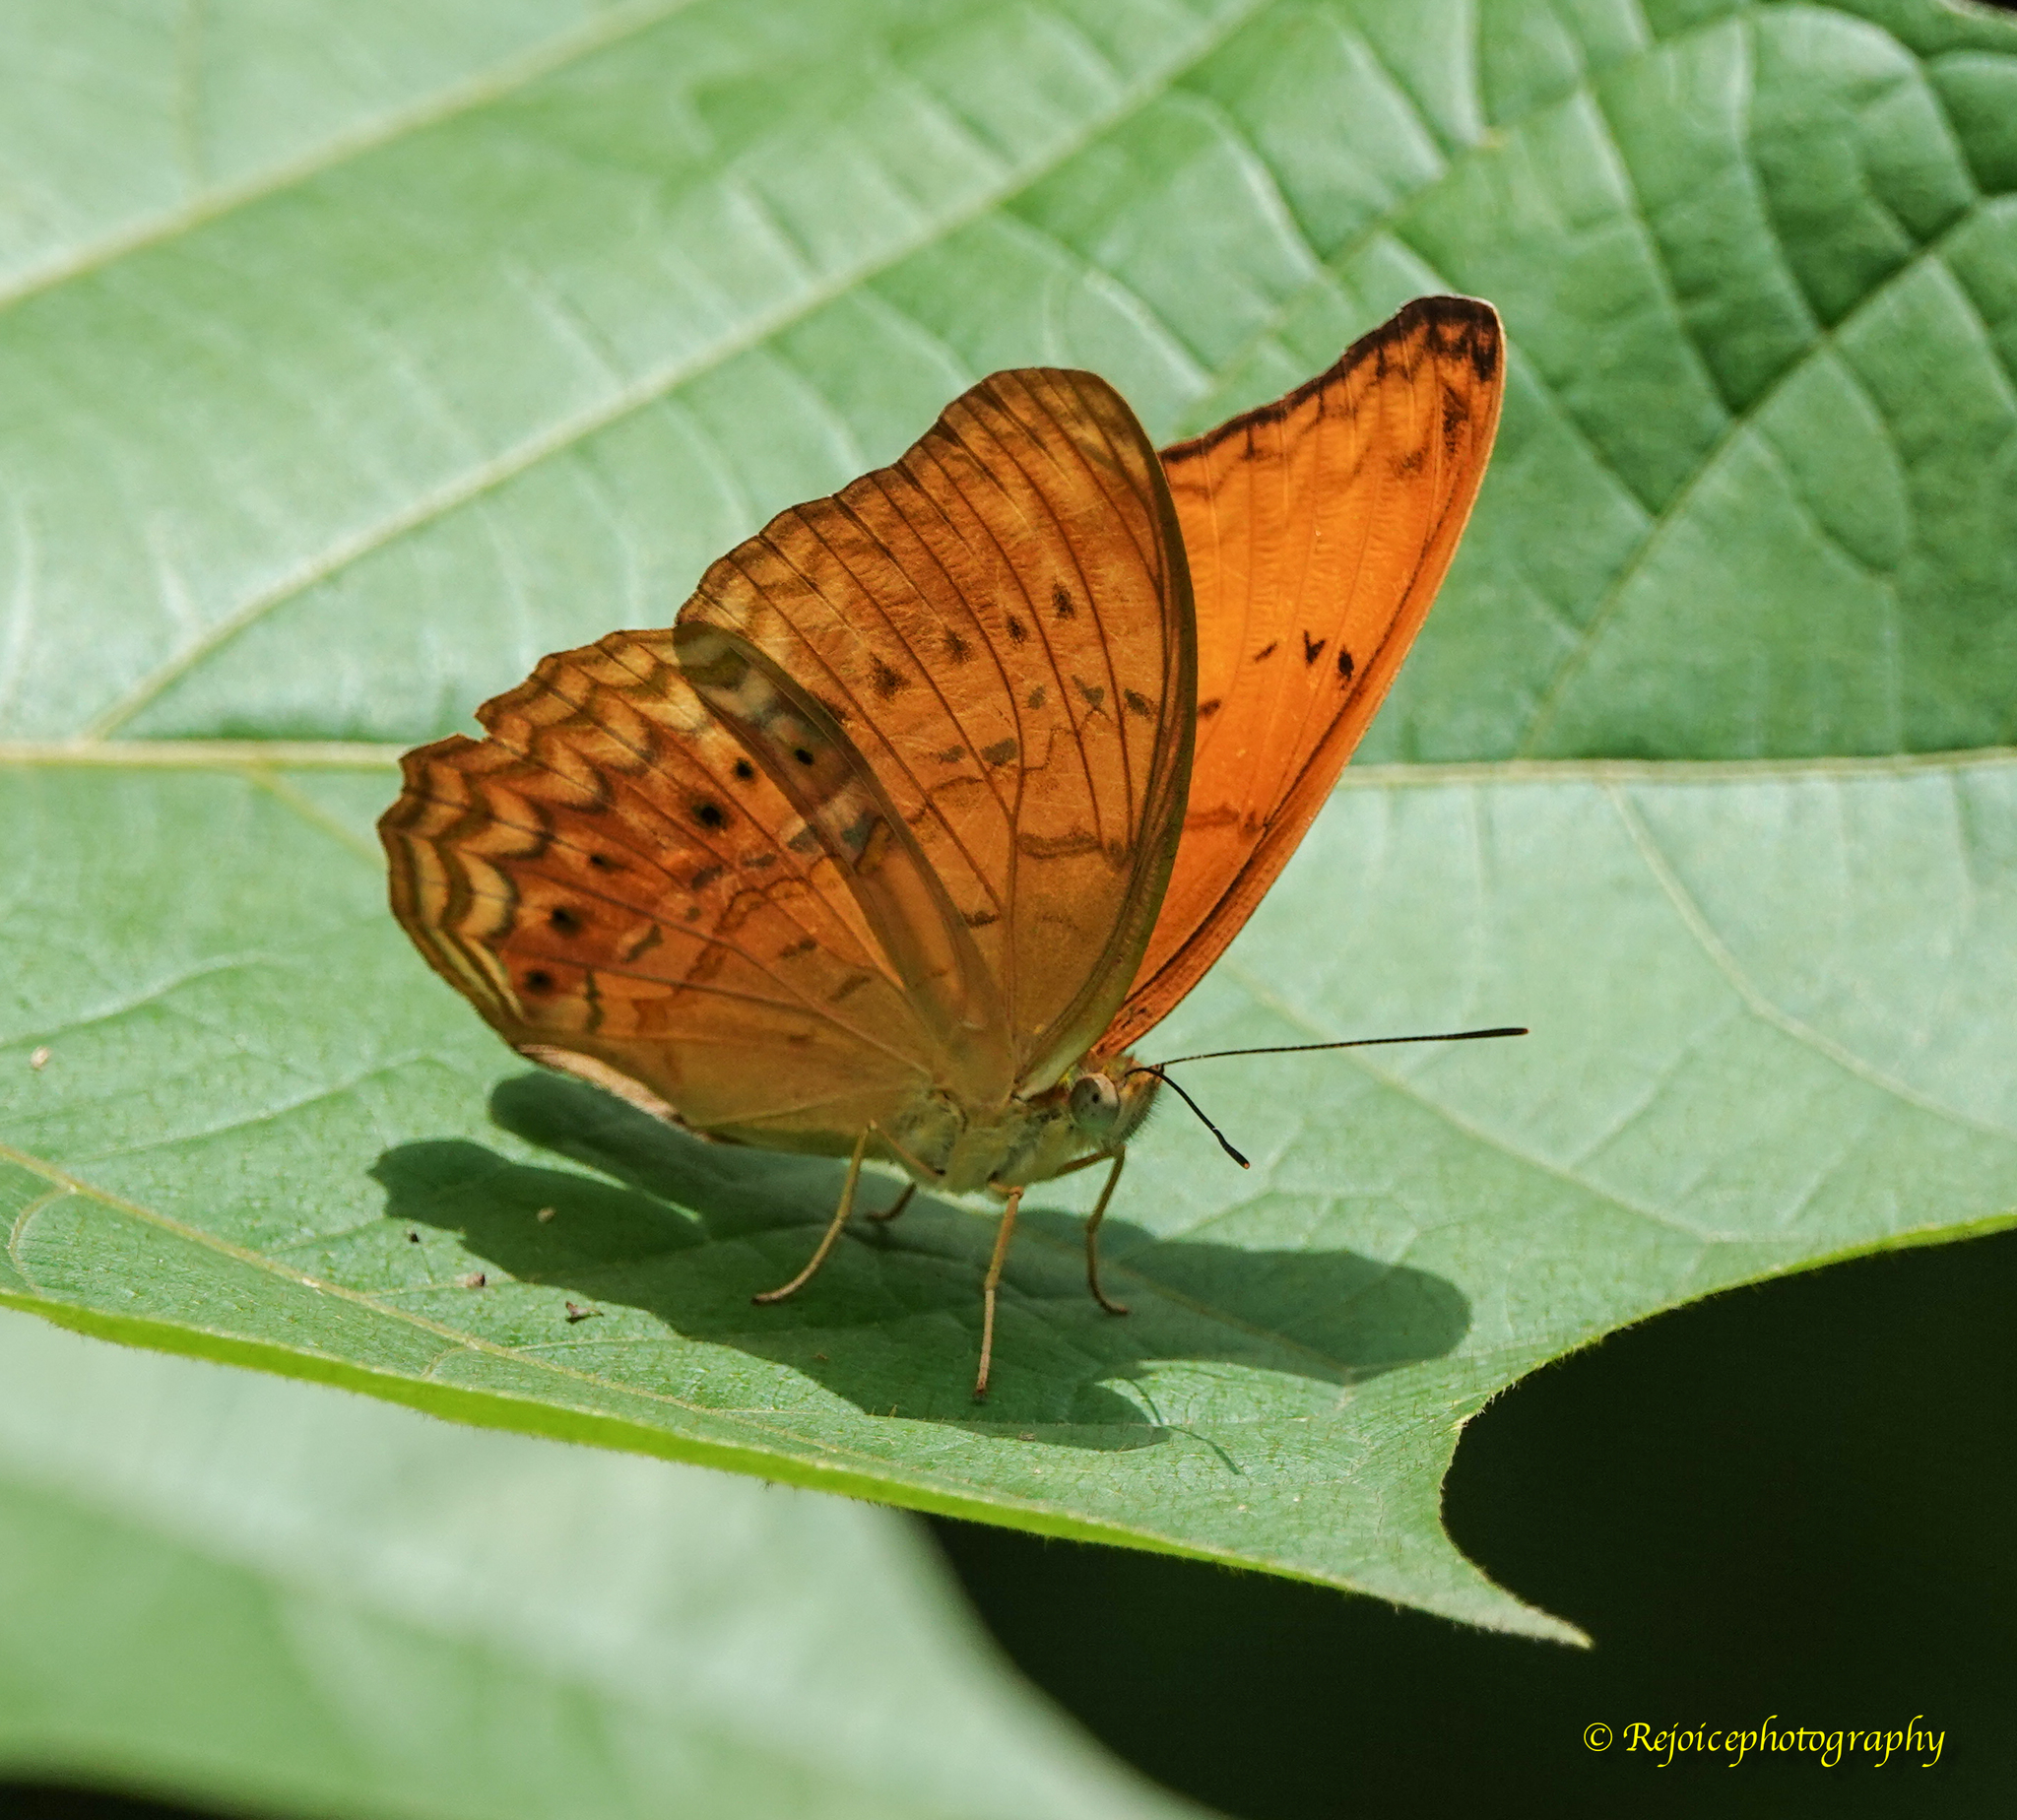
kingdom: Animalia
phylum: Arthropoda
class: Insecta
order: Lepidoptera
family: Nymphalidae
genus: Cirrochroa
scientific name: Cirrochroa aoris
